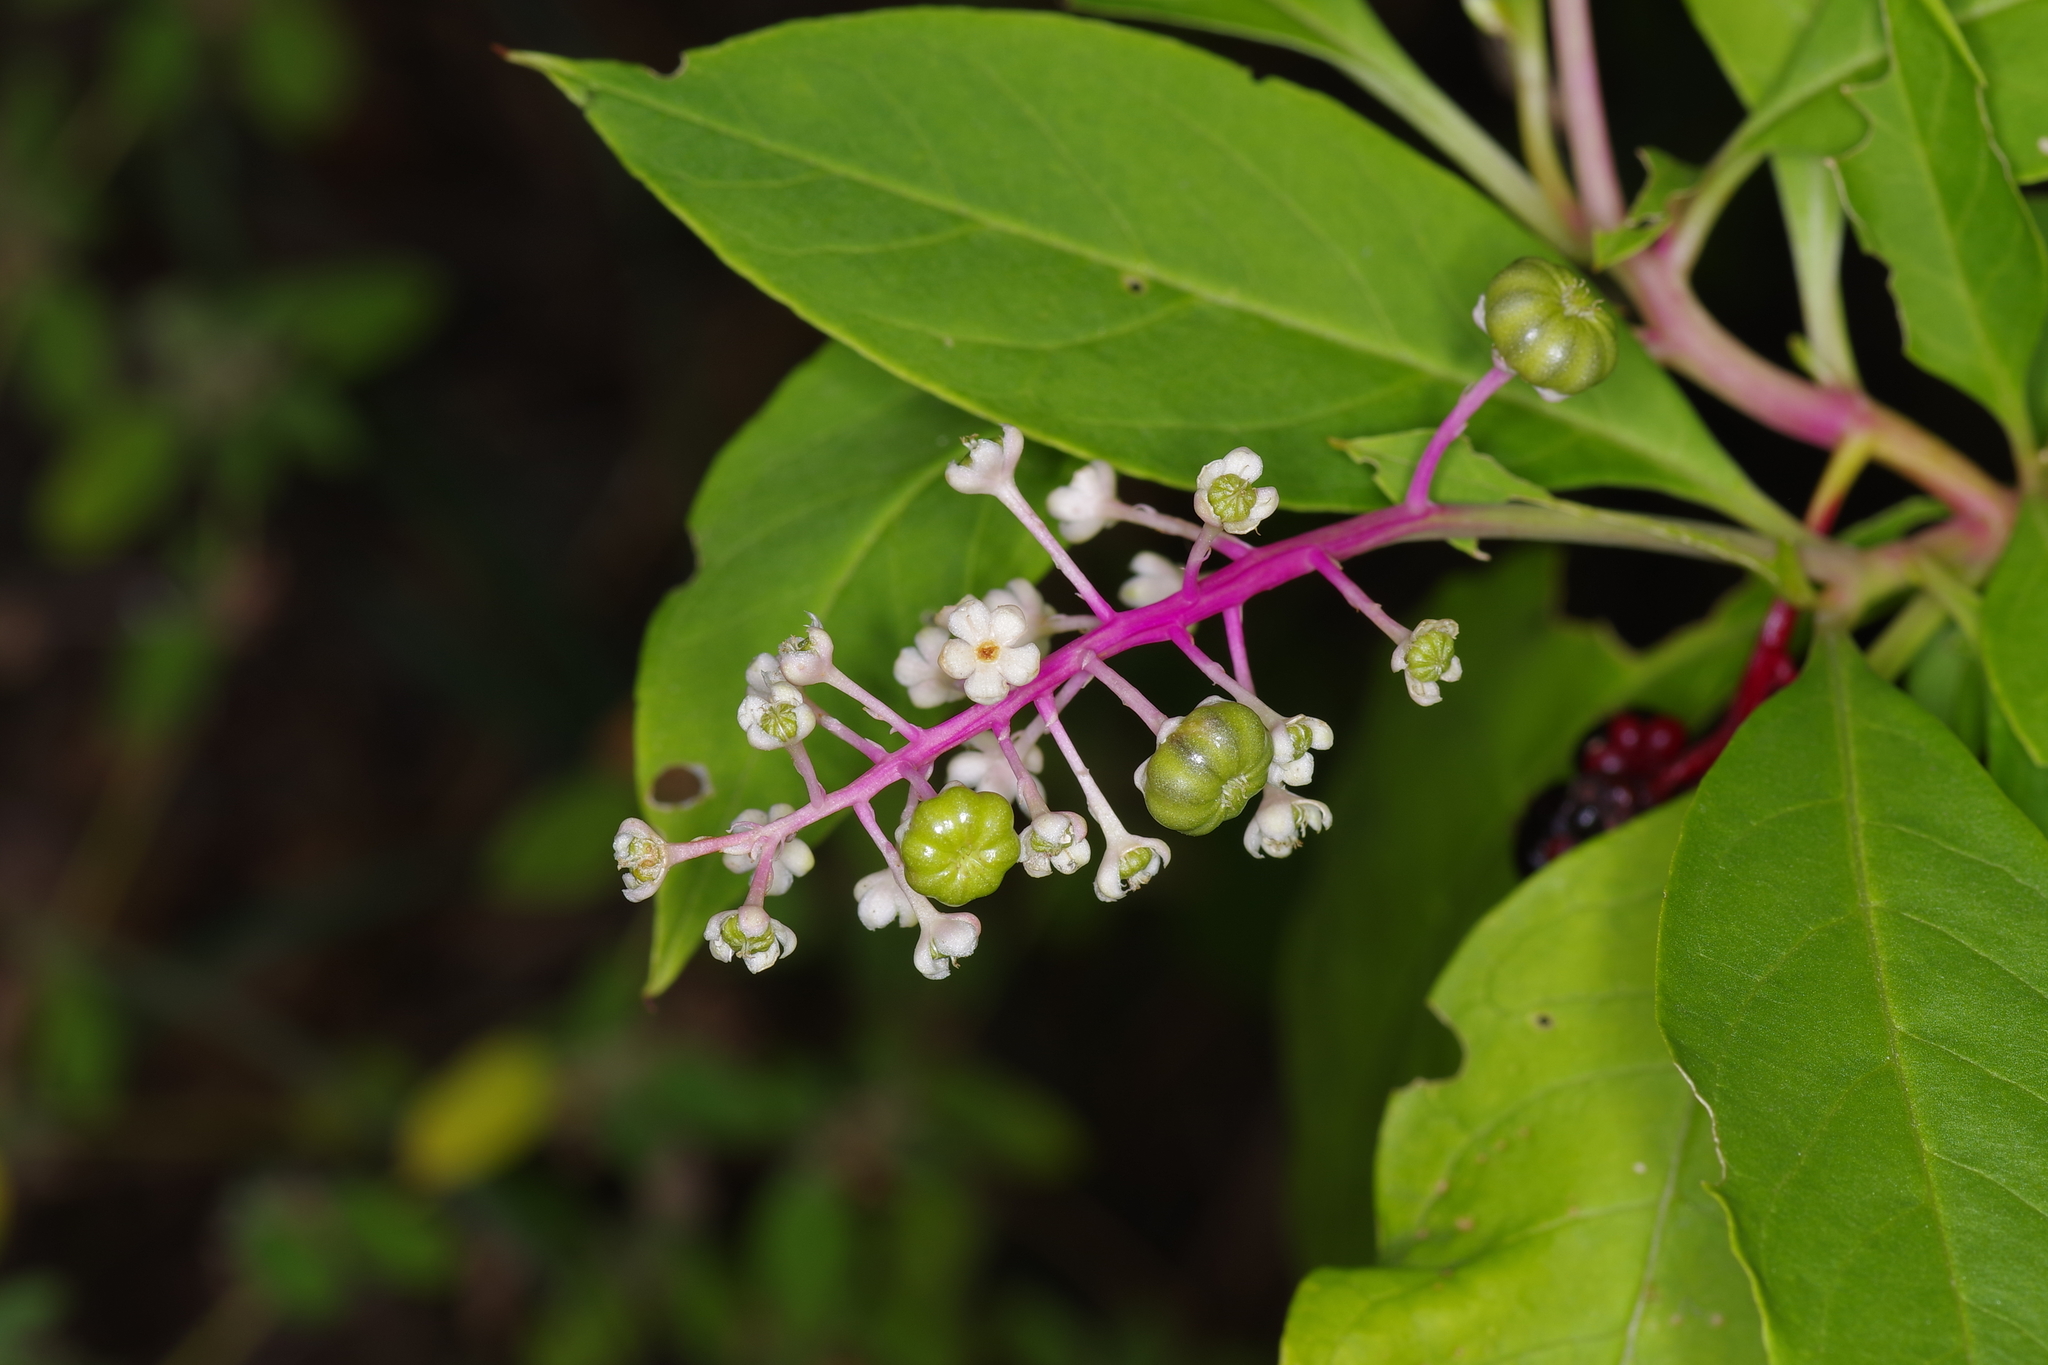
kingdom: Plantae
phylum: Tracheophyta
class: Magnoliopsida
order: Caryophyllales
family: Phytolaccaceae
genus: Phytolacca
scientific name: Phytolacca americana
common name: American pokeweed
